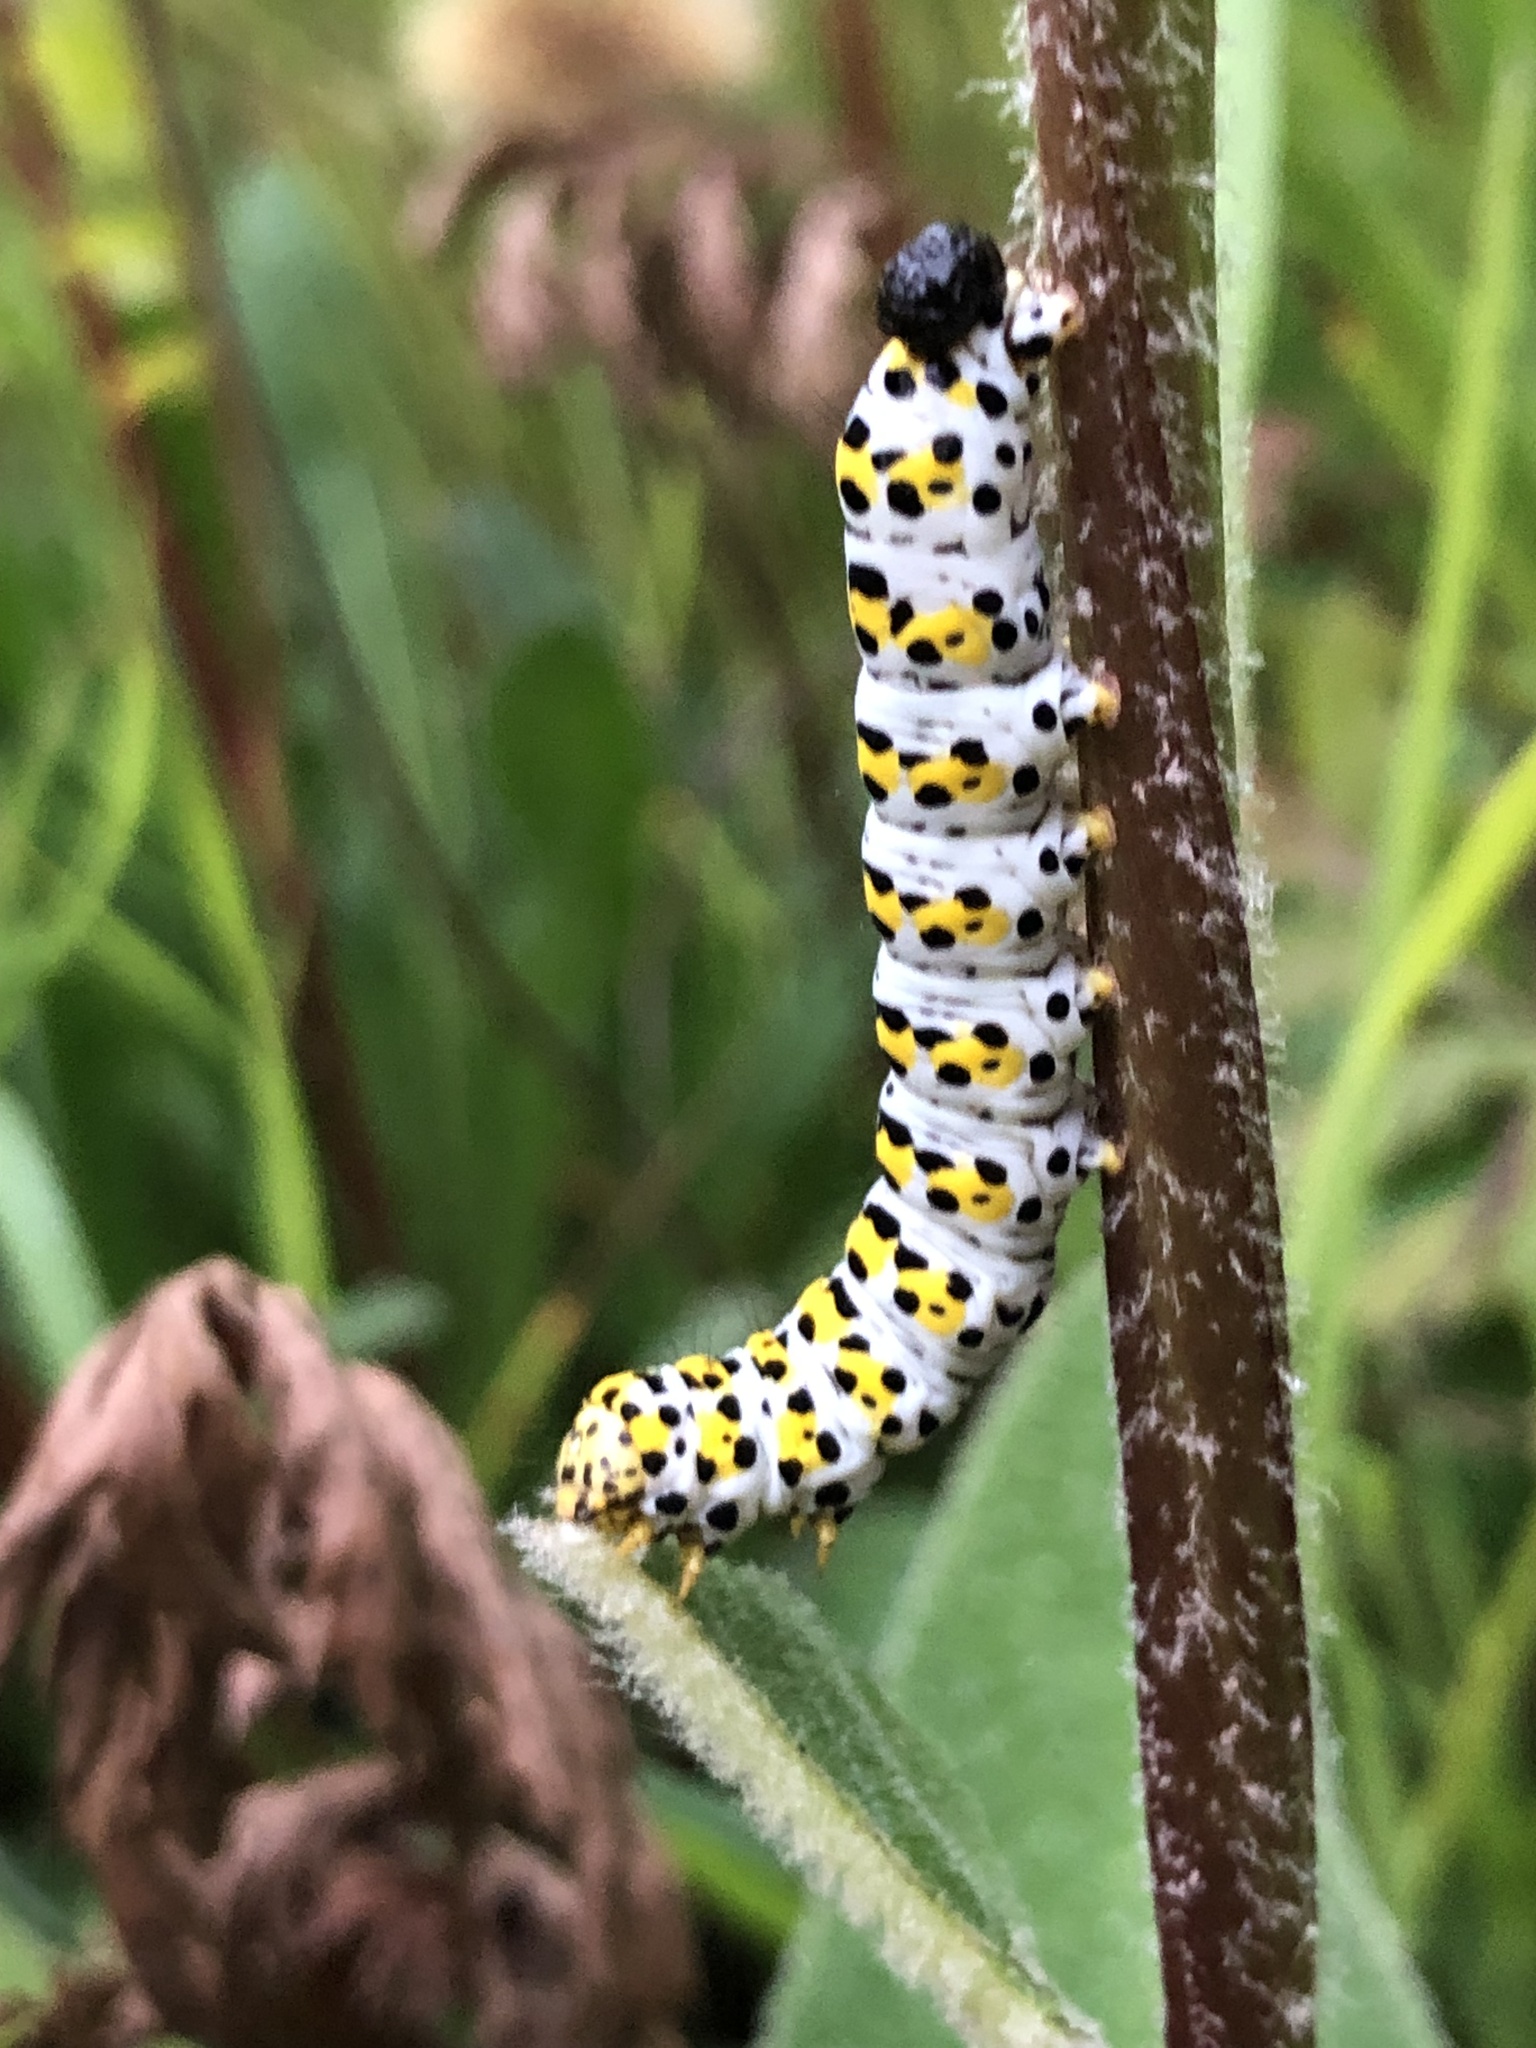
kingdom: Animalia
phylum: Arthropoda
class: Insecta
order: Lepidoptera
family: Noctuidae
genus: Cucullia
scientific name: Cucullia verbasci
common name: Mullein
